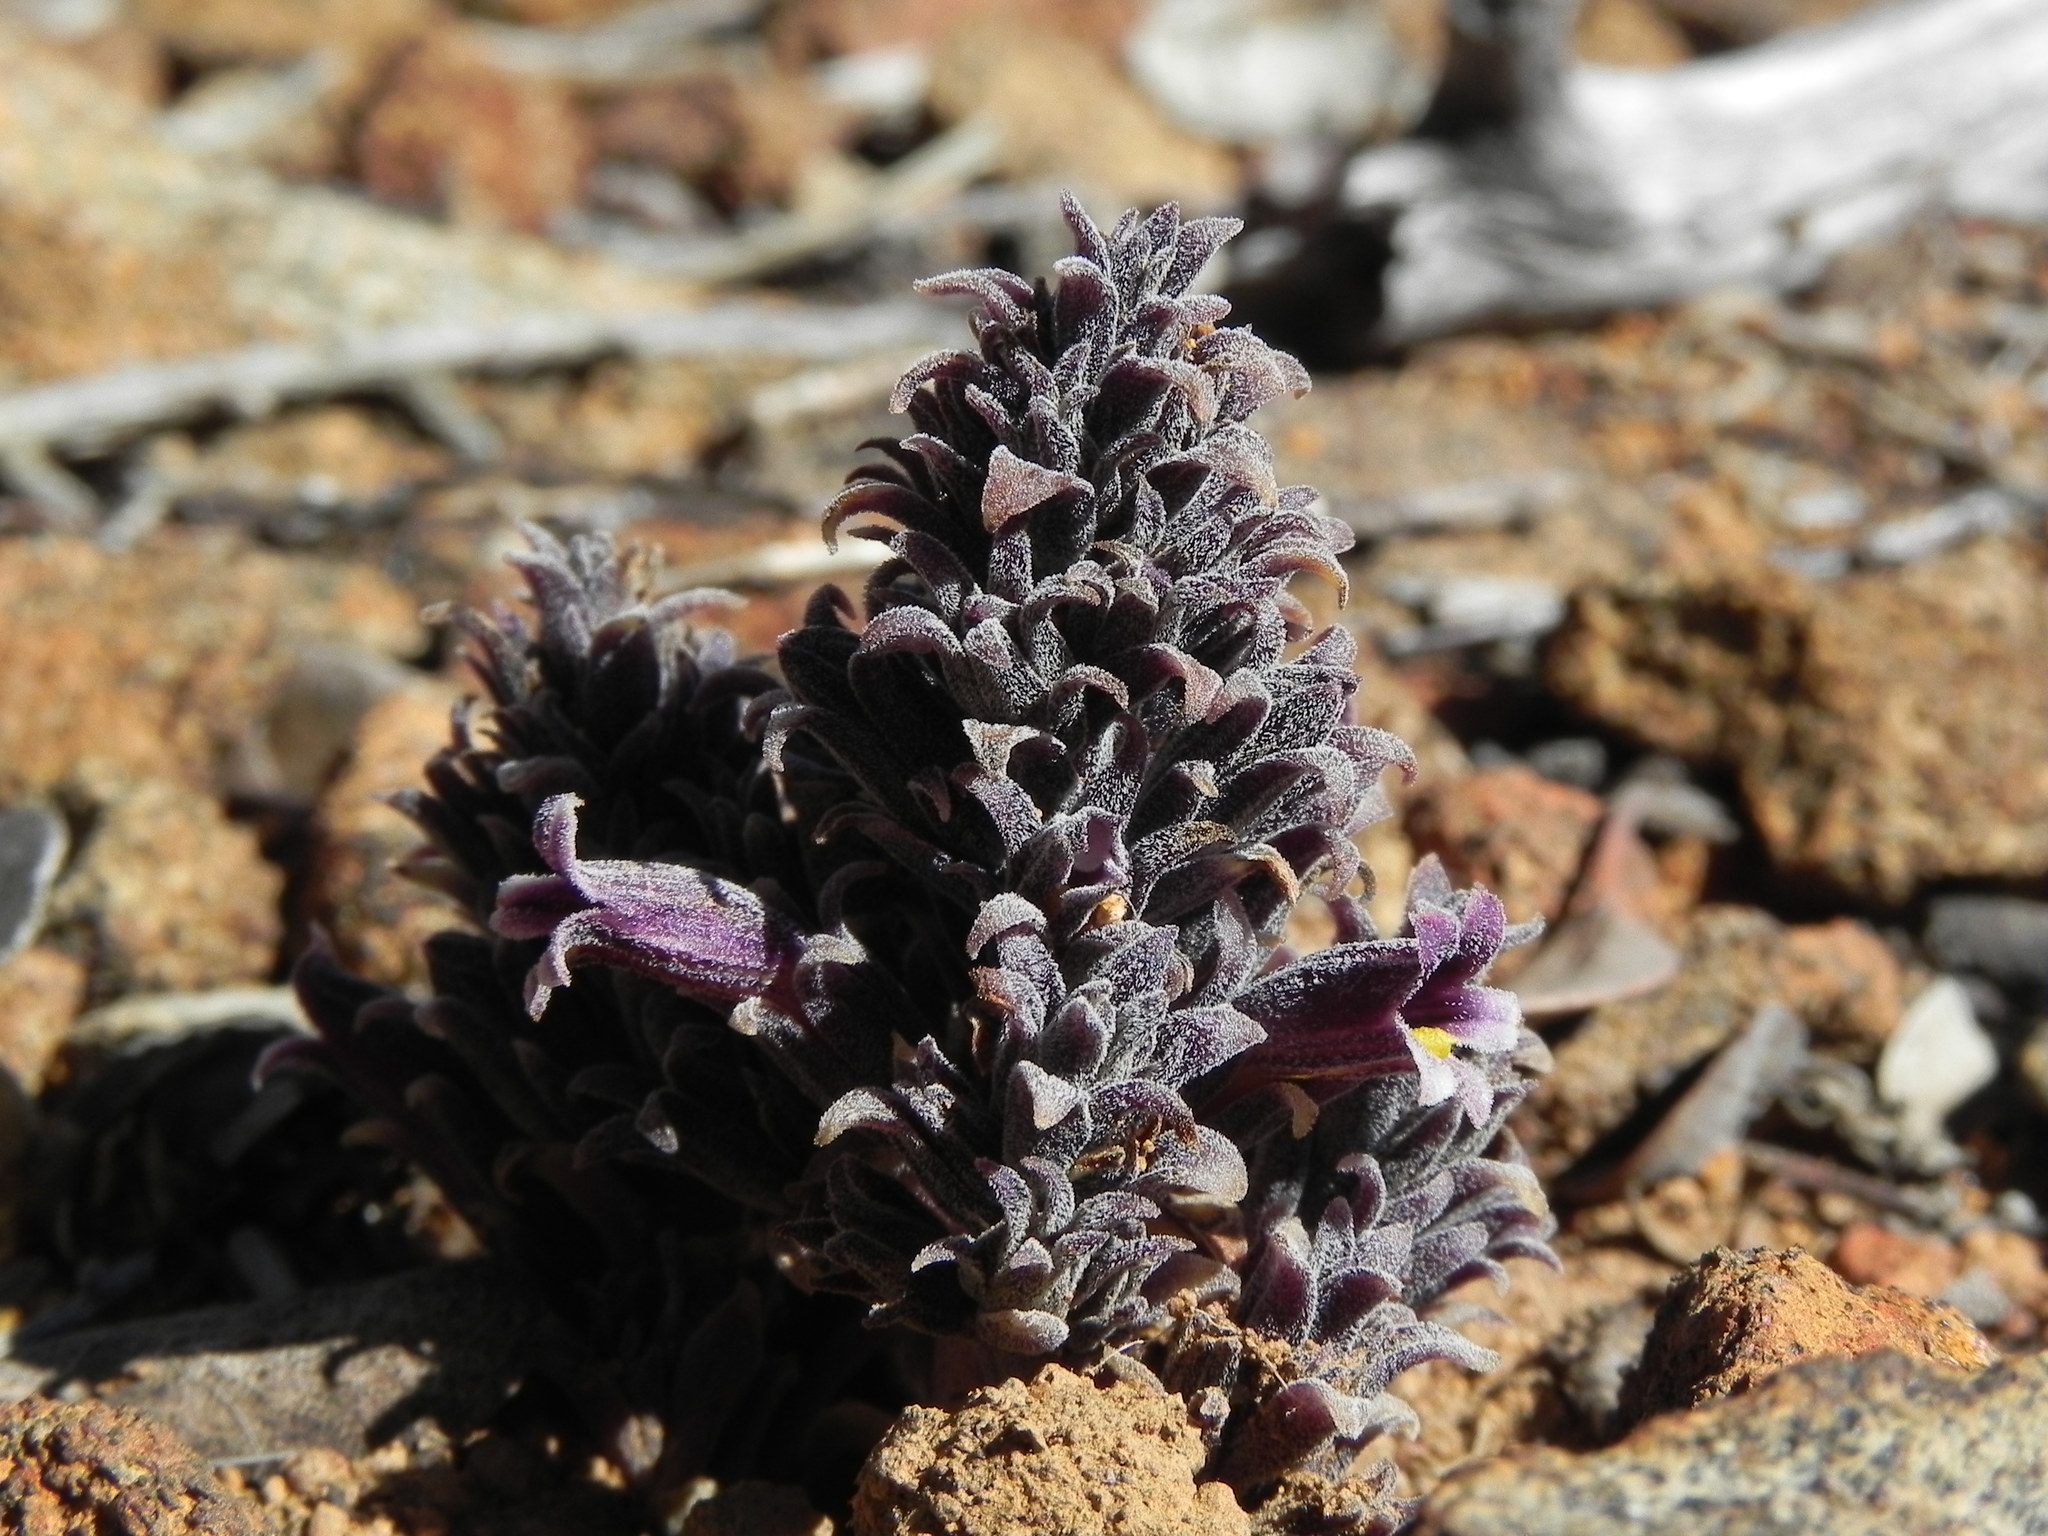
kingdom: Plantae
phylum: Tracheophyta
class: Magnoliopsida
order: Lamiales
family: Orobanchaceae
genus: Aphyllon
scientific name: Aphyllon tuberosum
